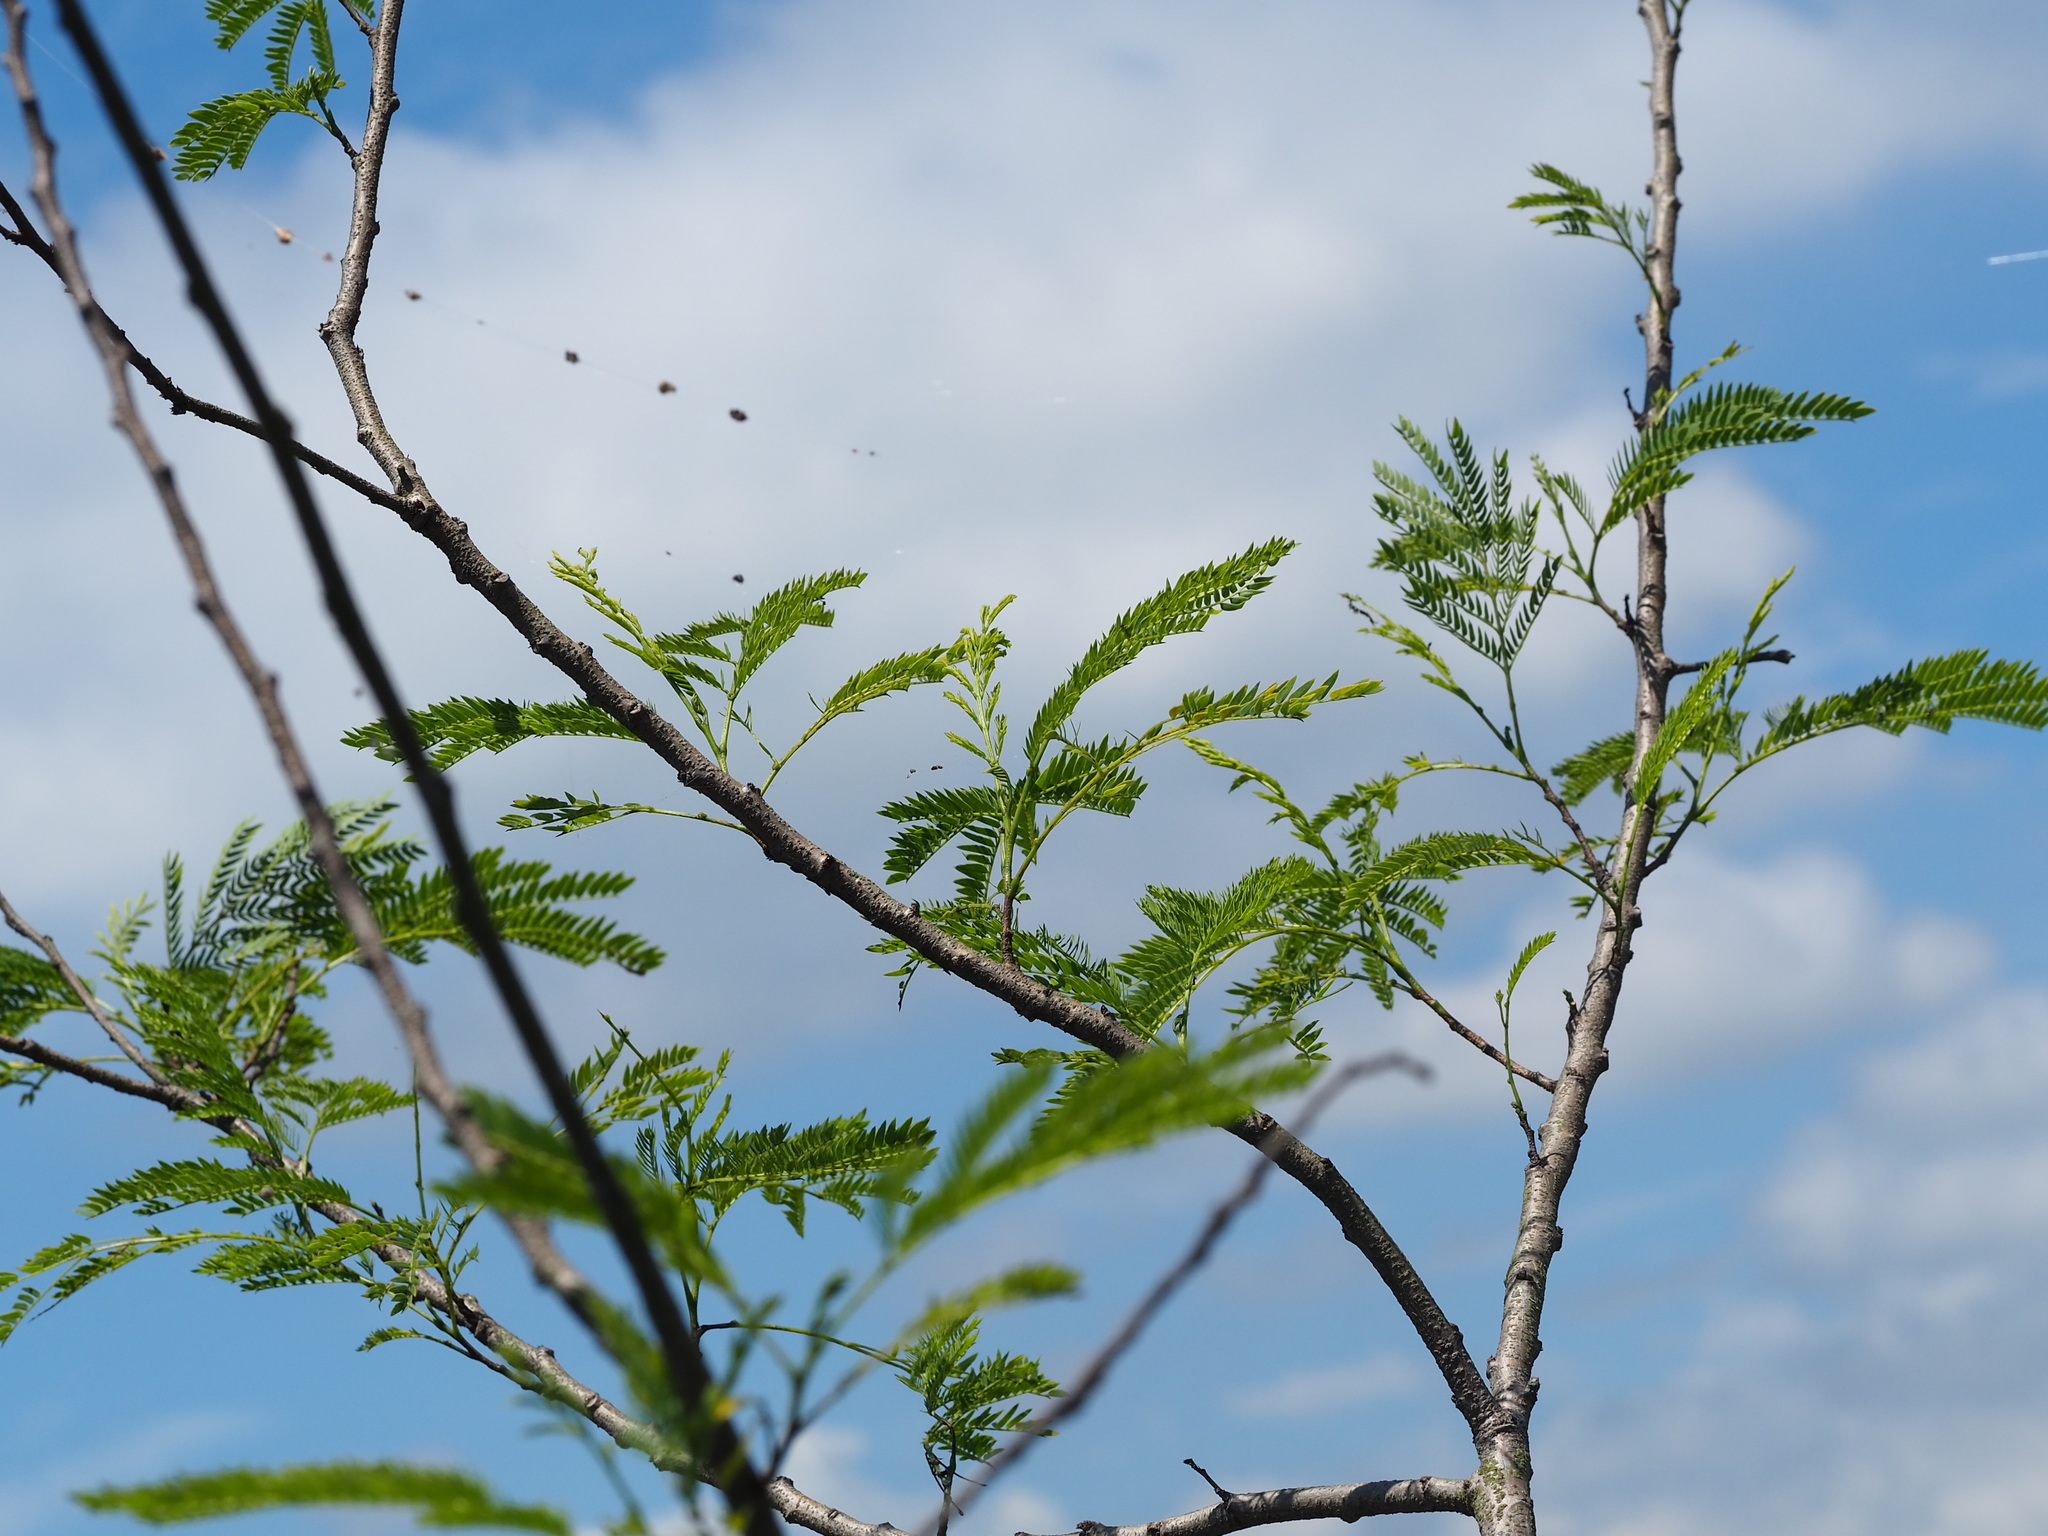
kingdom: Plantae
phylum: Tracheophyta
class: Magnoliopsida
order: Fabales
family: Fabaceae
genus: Leucaena
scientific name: Leucaena leucocephala
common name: White leadtree
